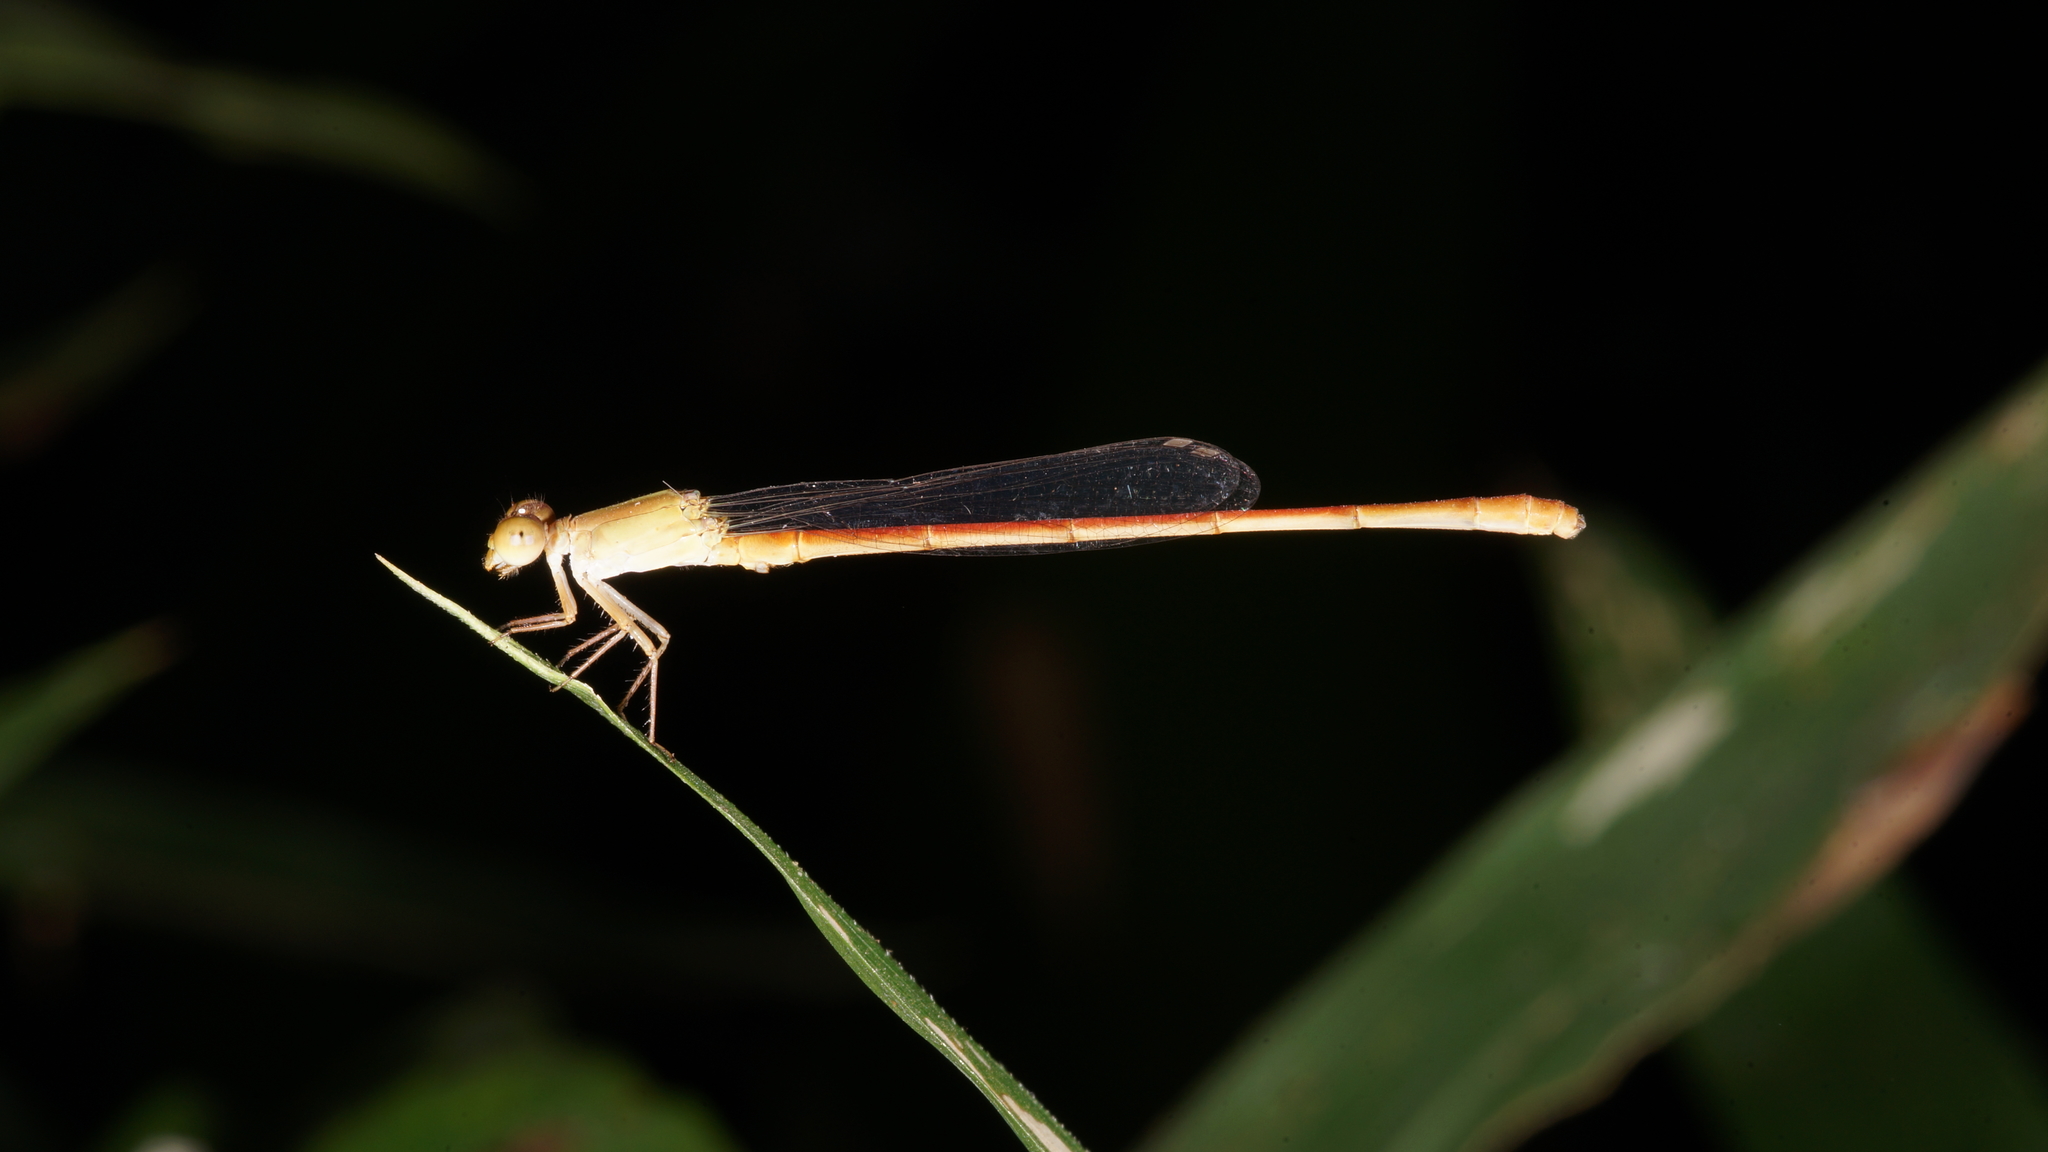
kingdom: Animalia
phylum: Arthropoda
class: Insecta
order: Odonata
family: Coenagrionidae
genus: Ceriagrion
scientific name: Ceriagrion olivaceum
